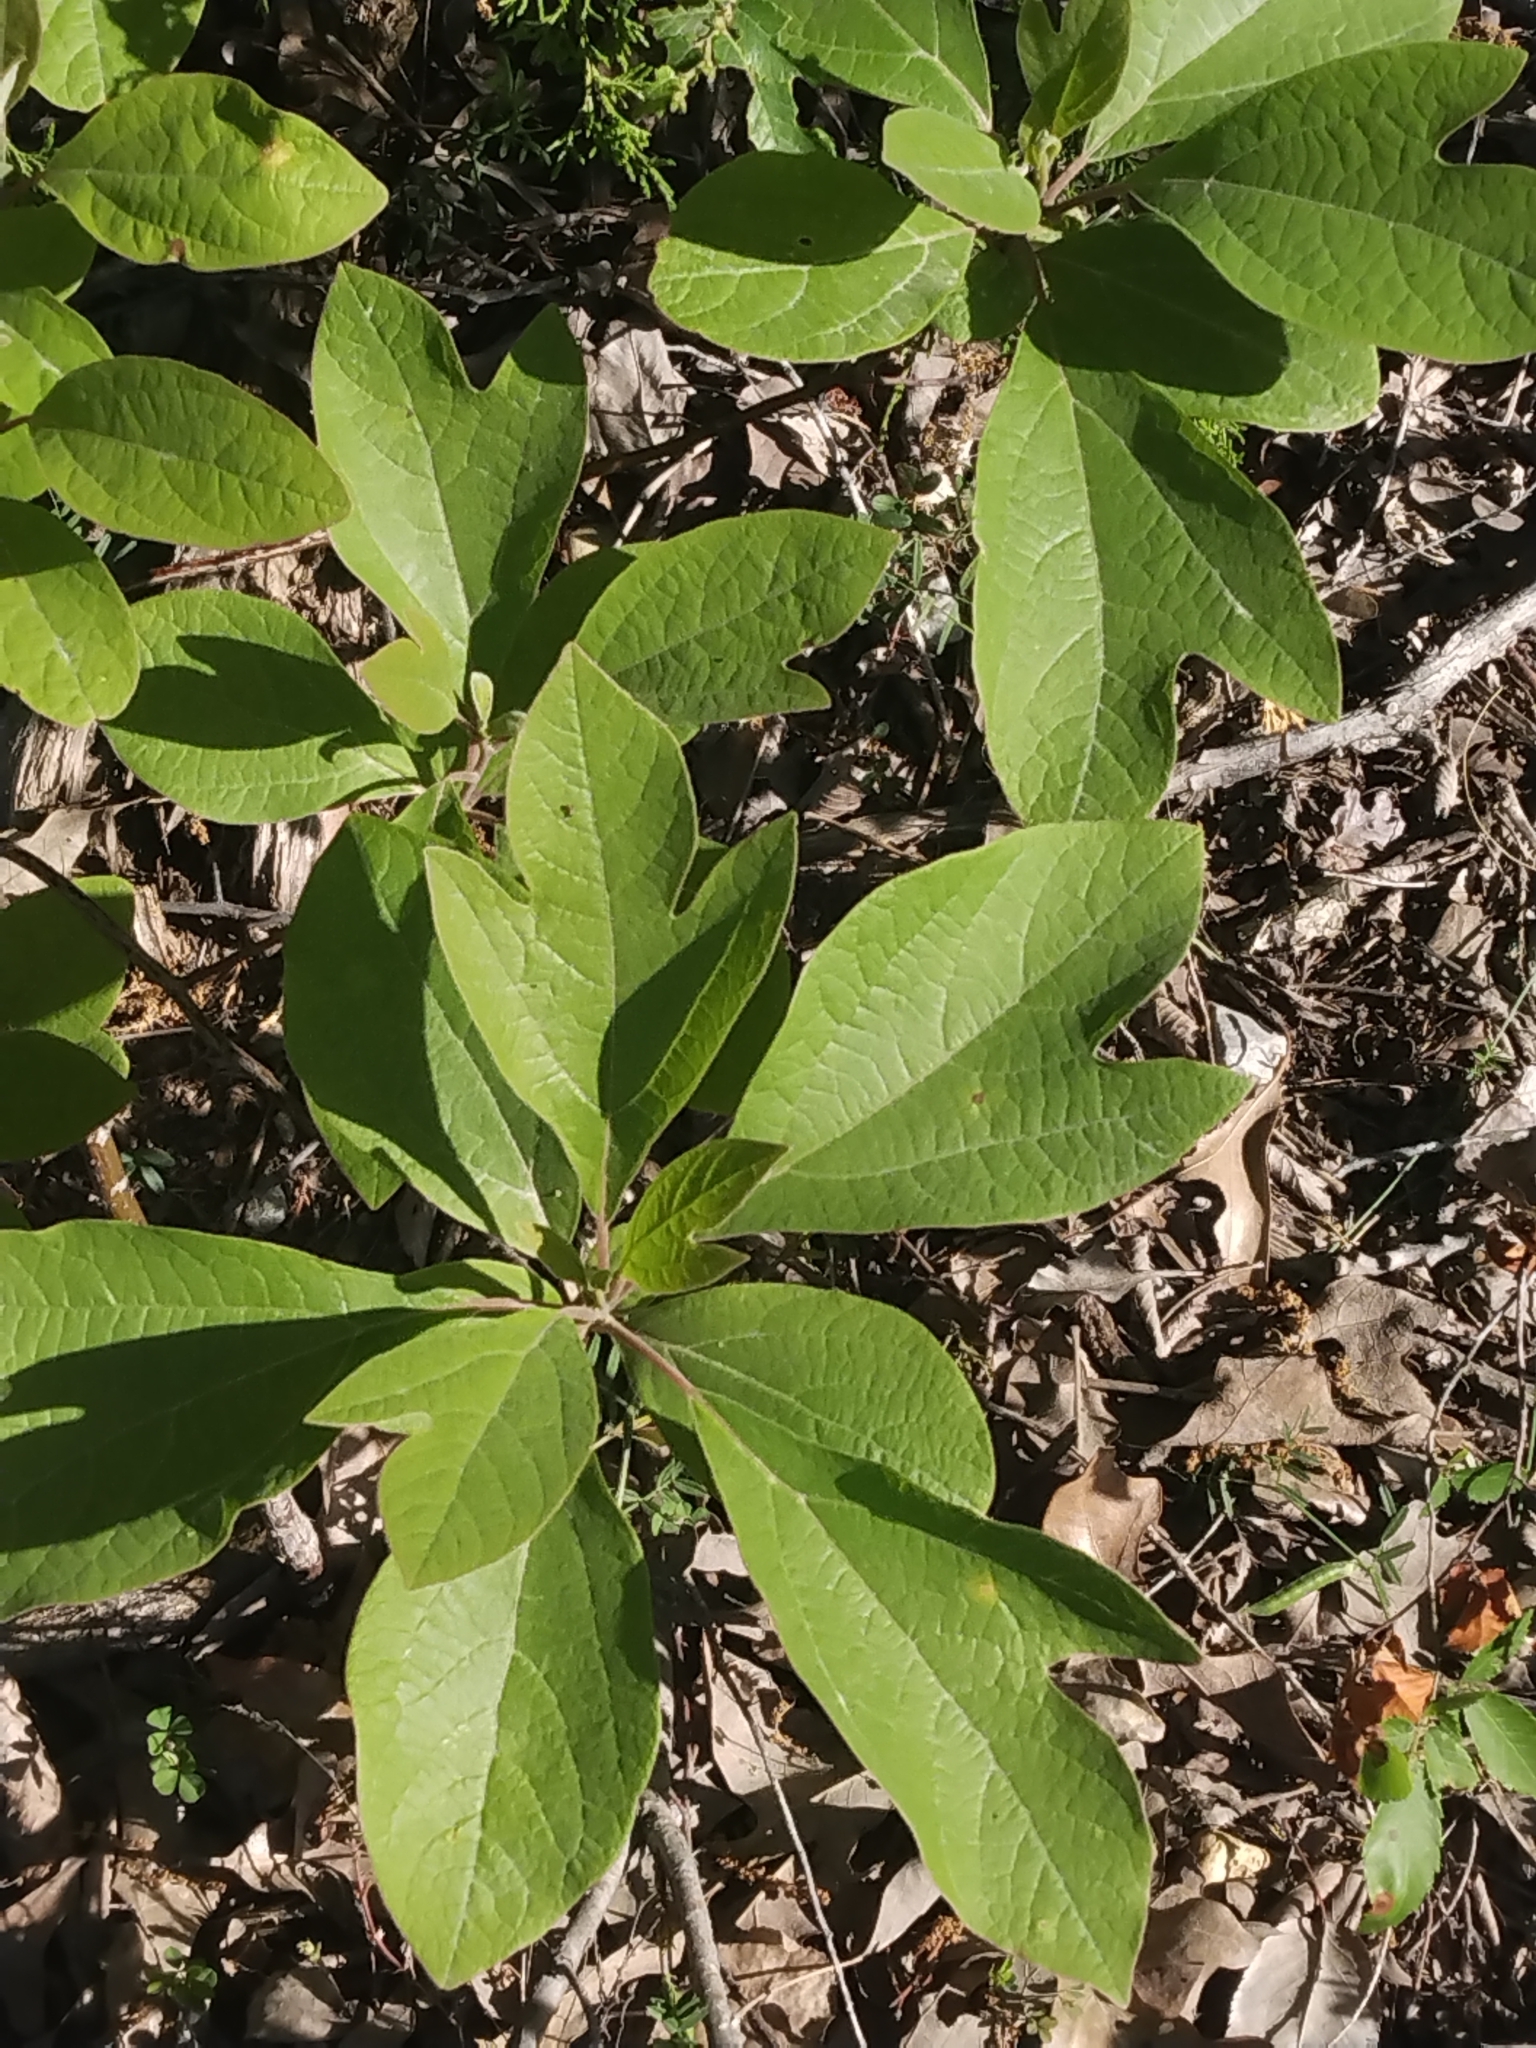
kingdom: Plantae
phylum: Tracheophyta
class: Magnoliopsida
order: Laurales
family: Lauraceae
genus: Sassafras
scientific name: Sassafras albidum
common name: Sassafras
